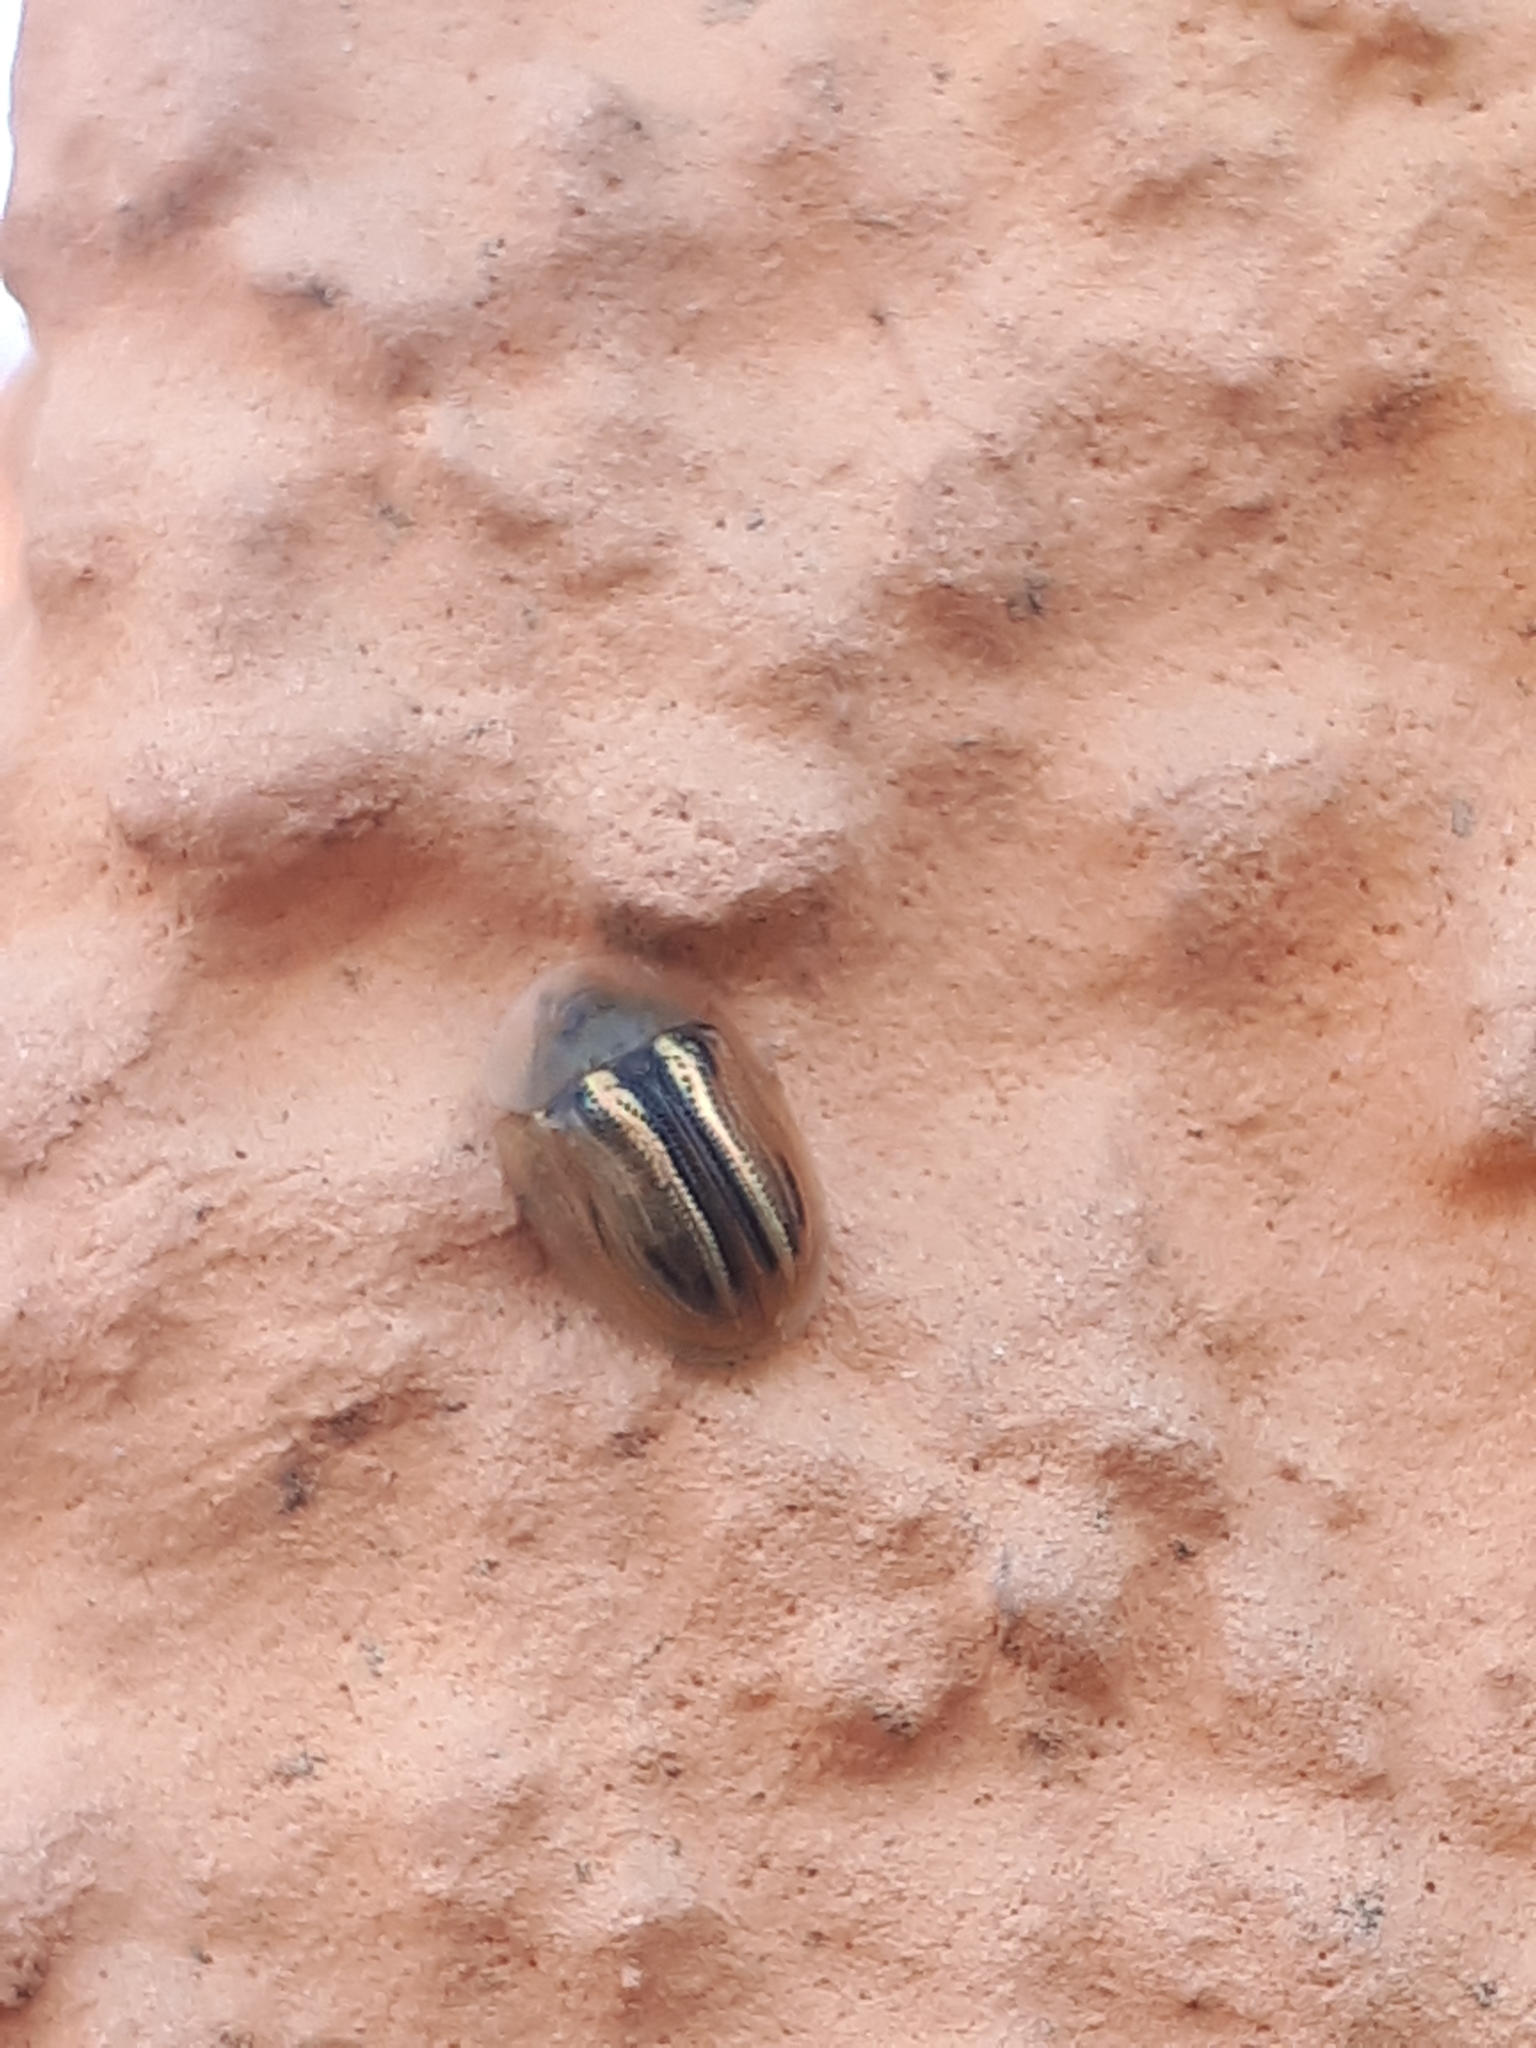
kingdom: Animalia
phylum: Arthropoda
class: Insecta
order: Coleoptera
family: Chrysomelidae
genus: Cassida
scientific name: Cassida nobilis
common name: Leaf beetle
